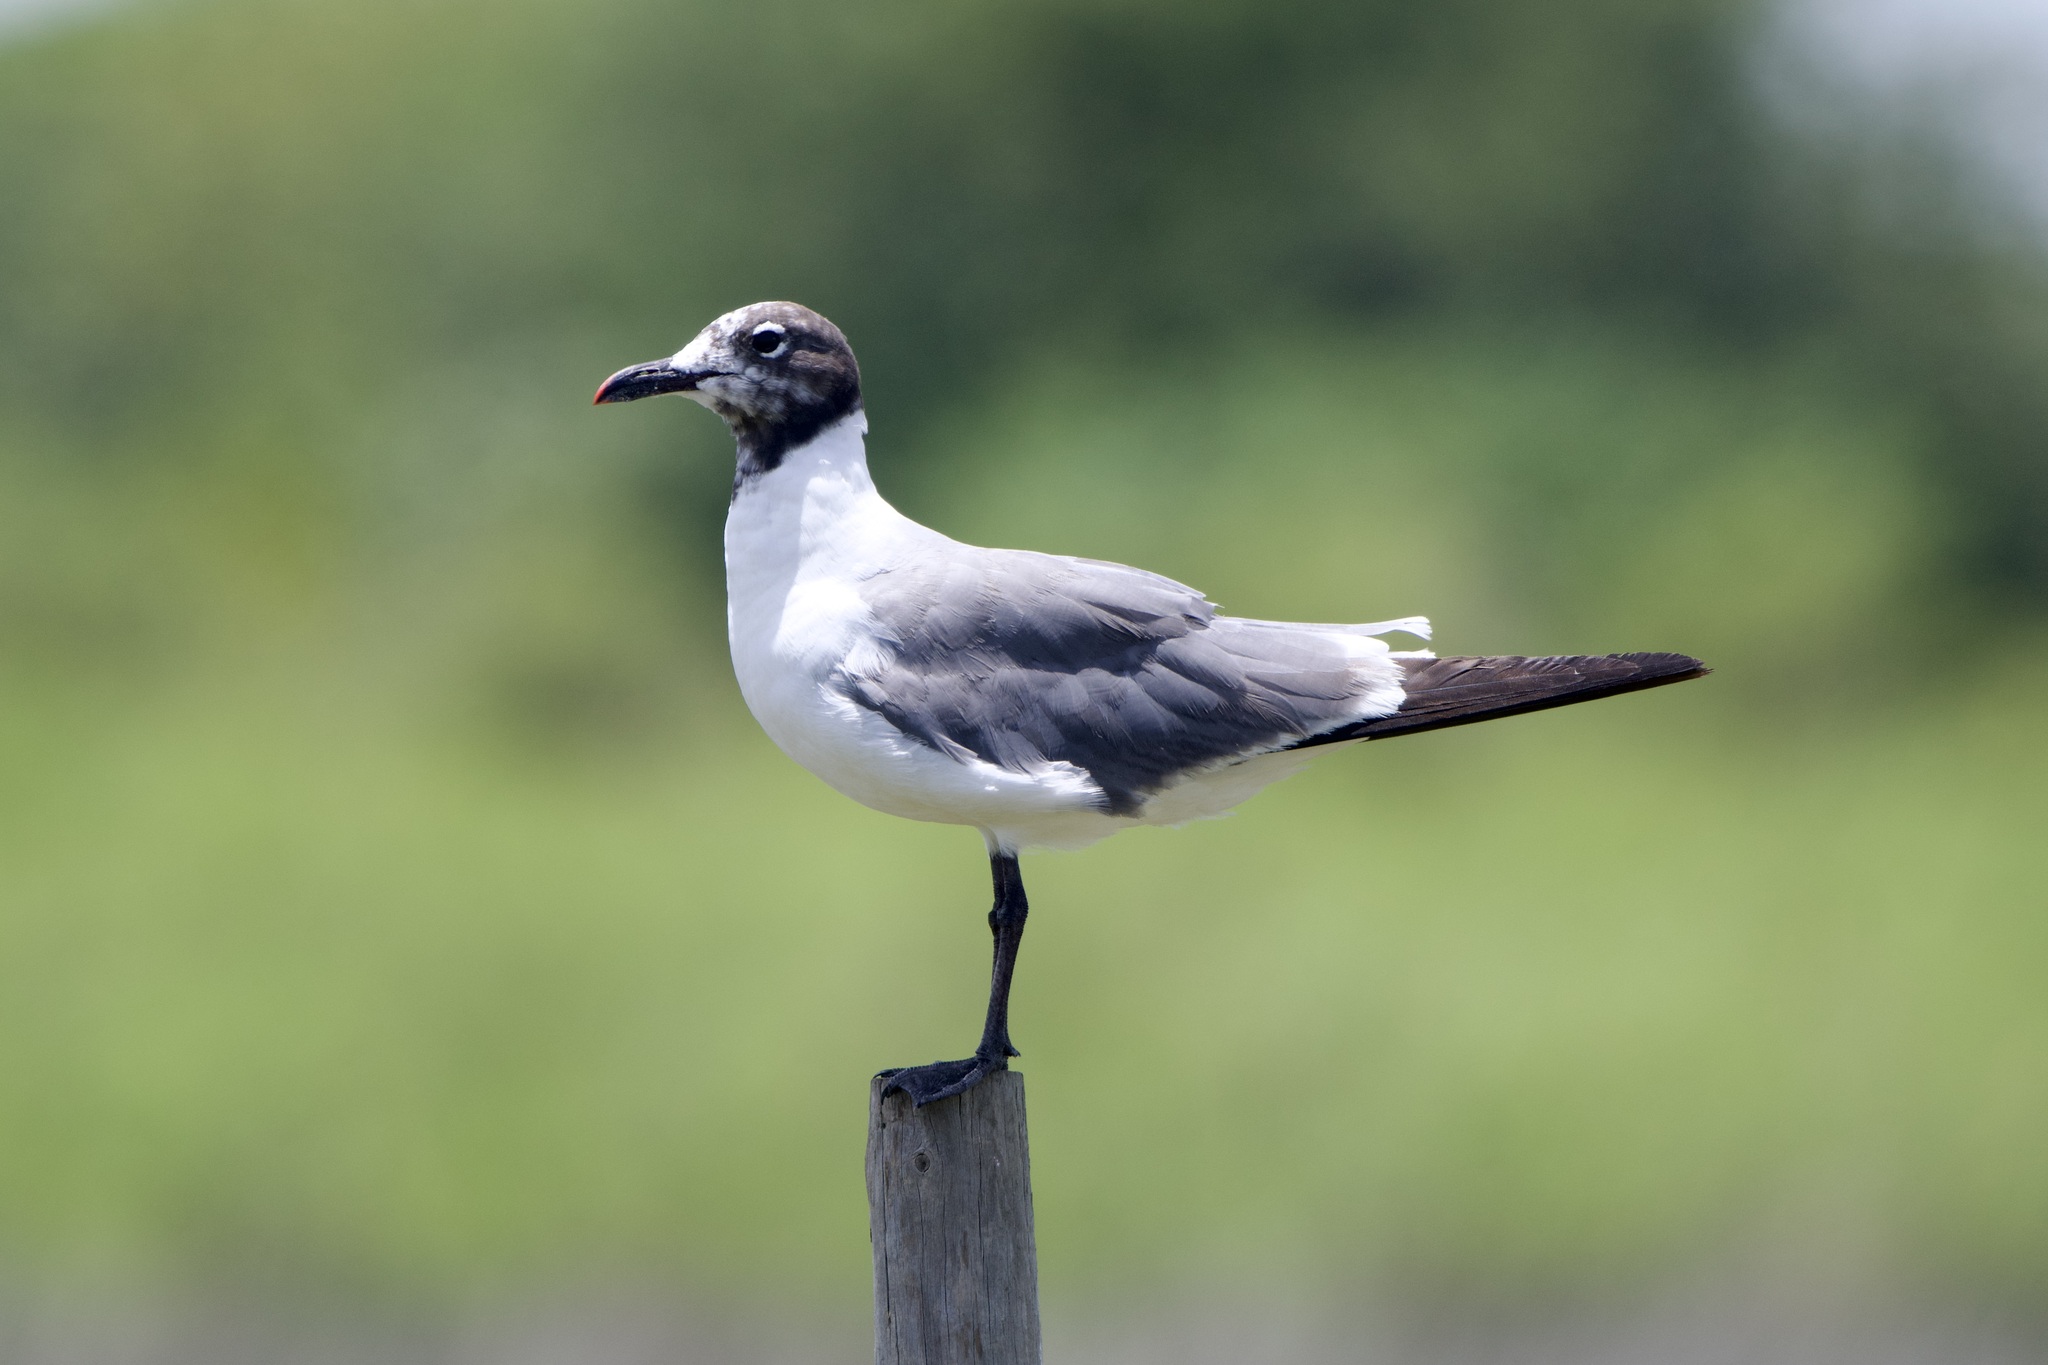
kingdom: Animalia
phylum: Chordata
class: Aves
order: Charadriiformes
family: Laridae
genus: Leucophaeus
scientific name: Leucophaeus atricilla
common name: Laughing gull
